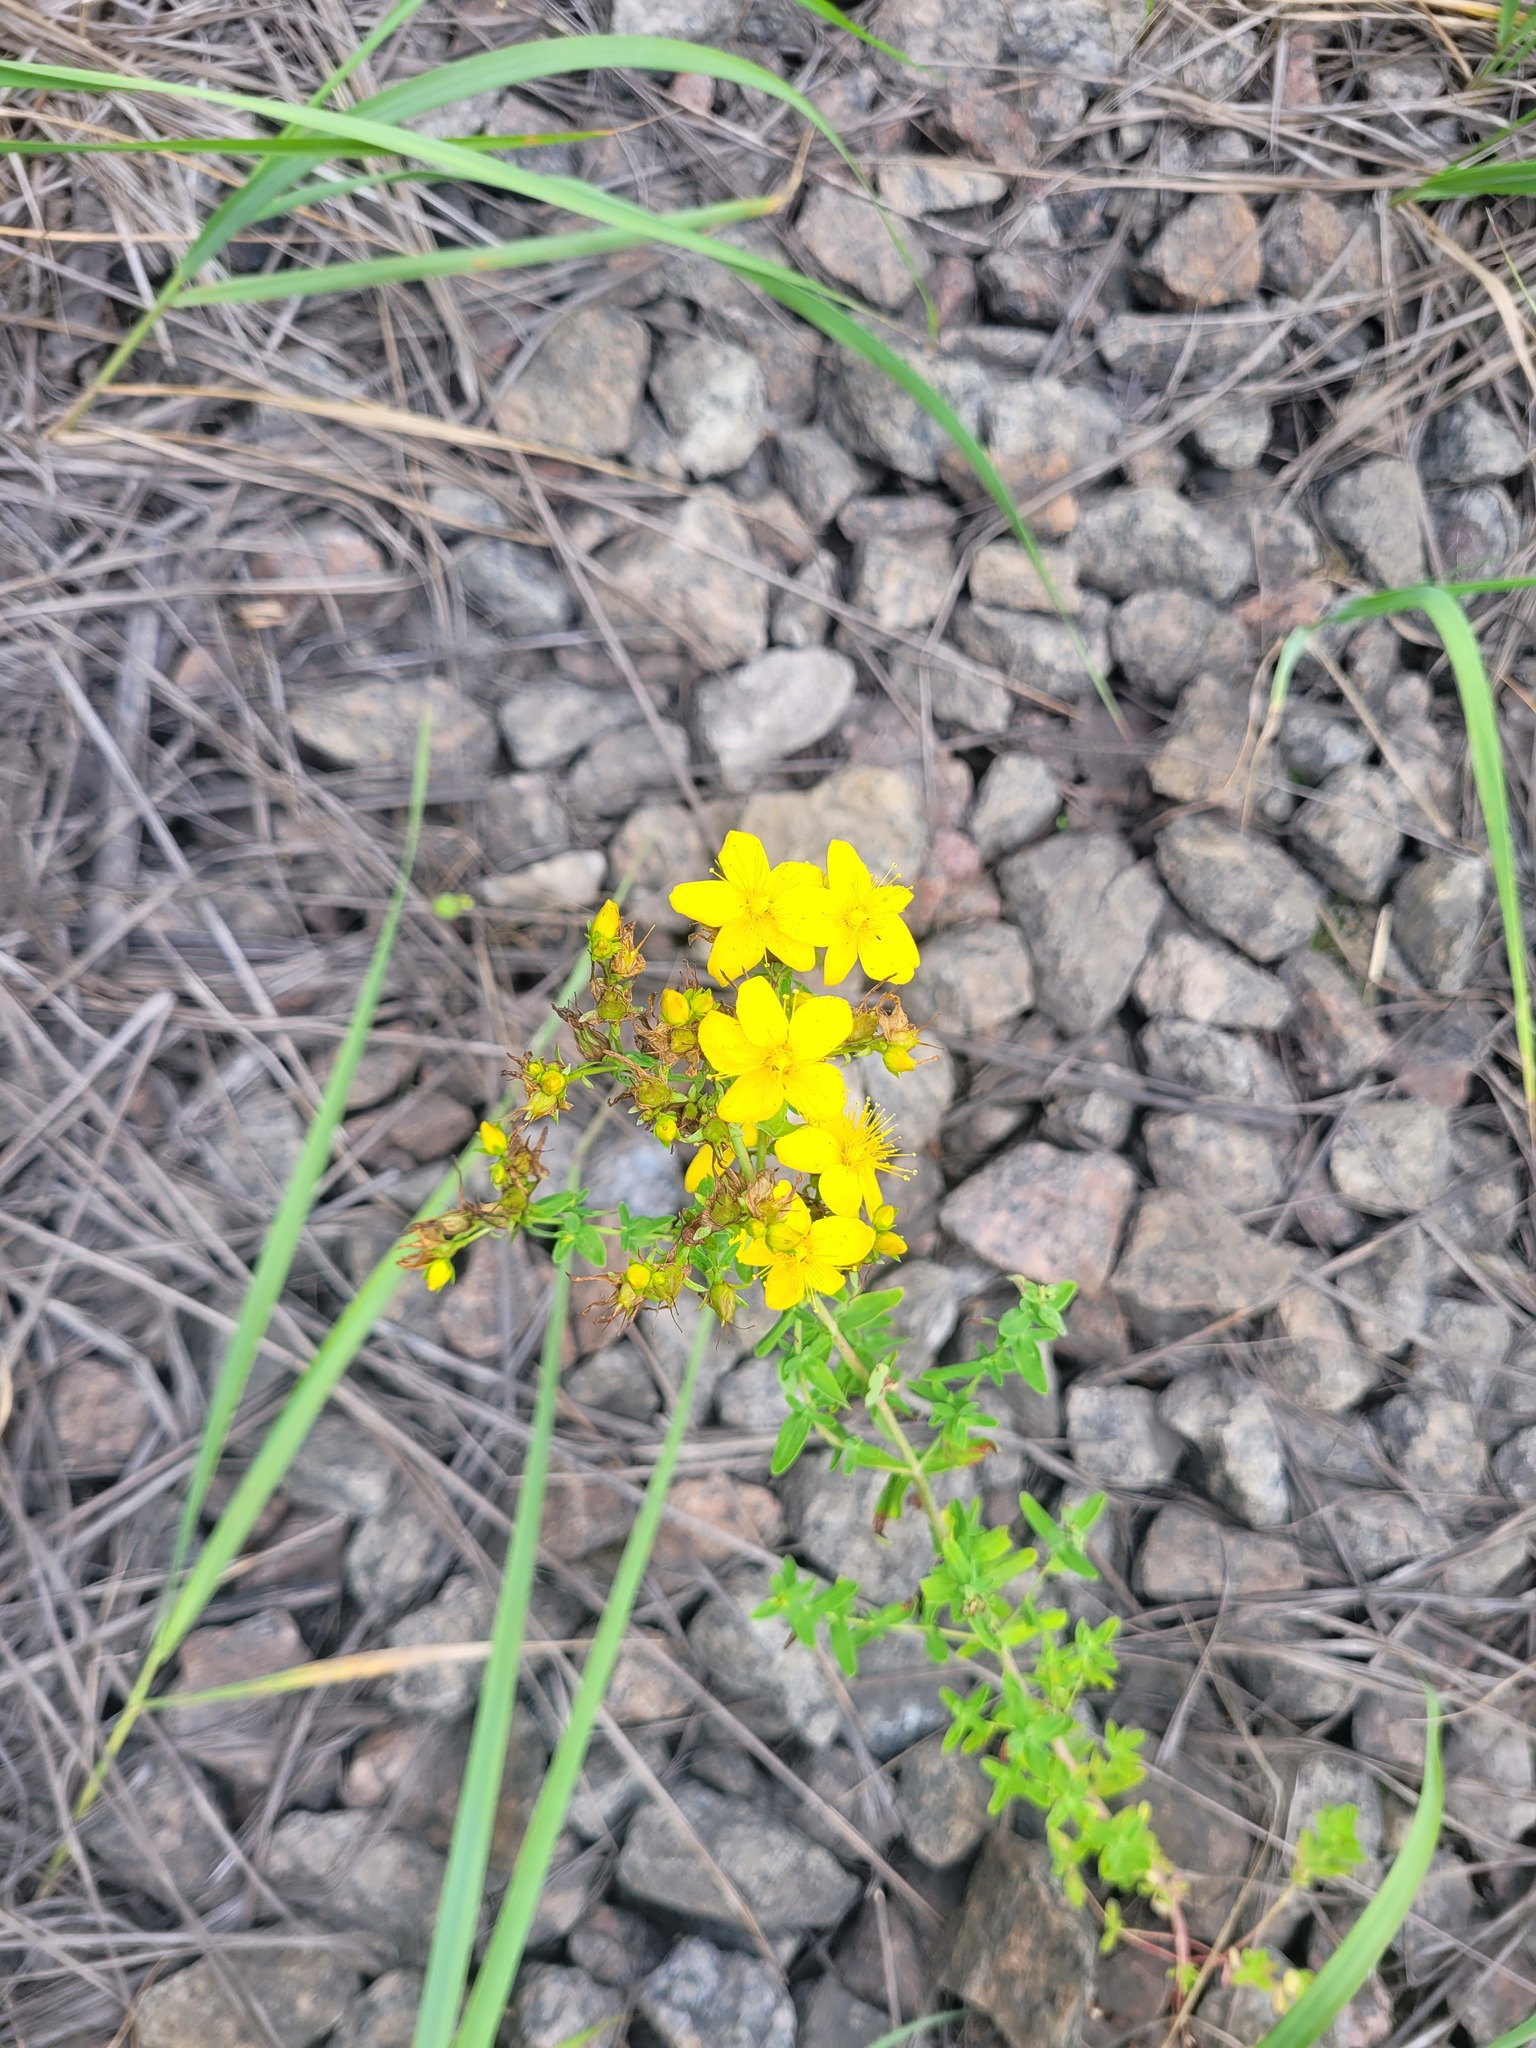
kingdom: Plantae
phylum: Tracheophyta
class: Magnoliopsida
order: Malpighiales
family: Hypericaceae
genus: Hypericum
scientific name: Hypericum perforatum
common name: Common st. johnswort
